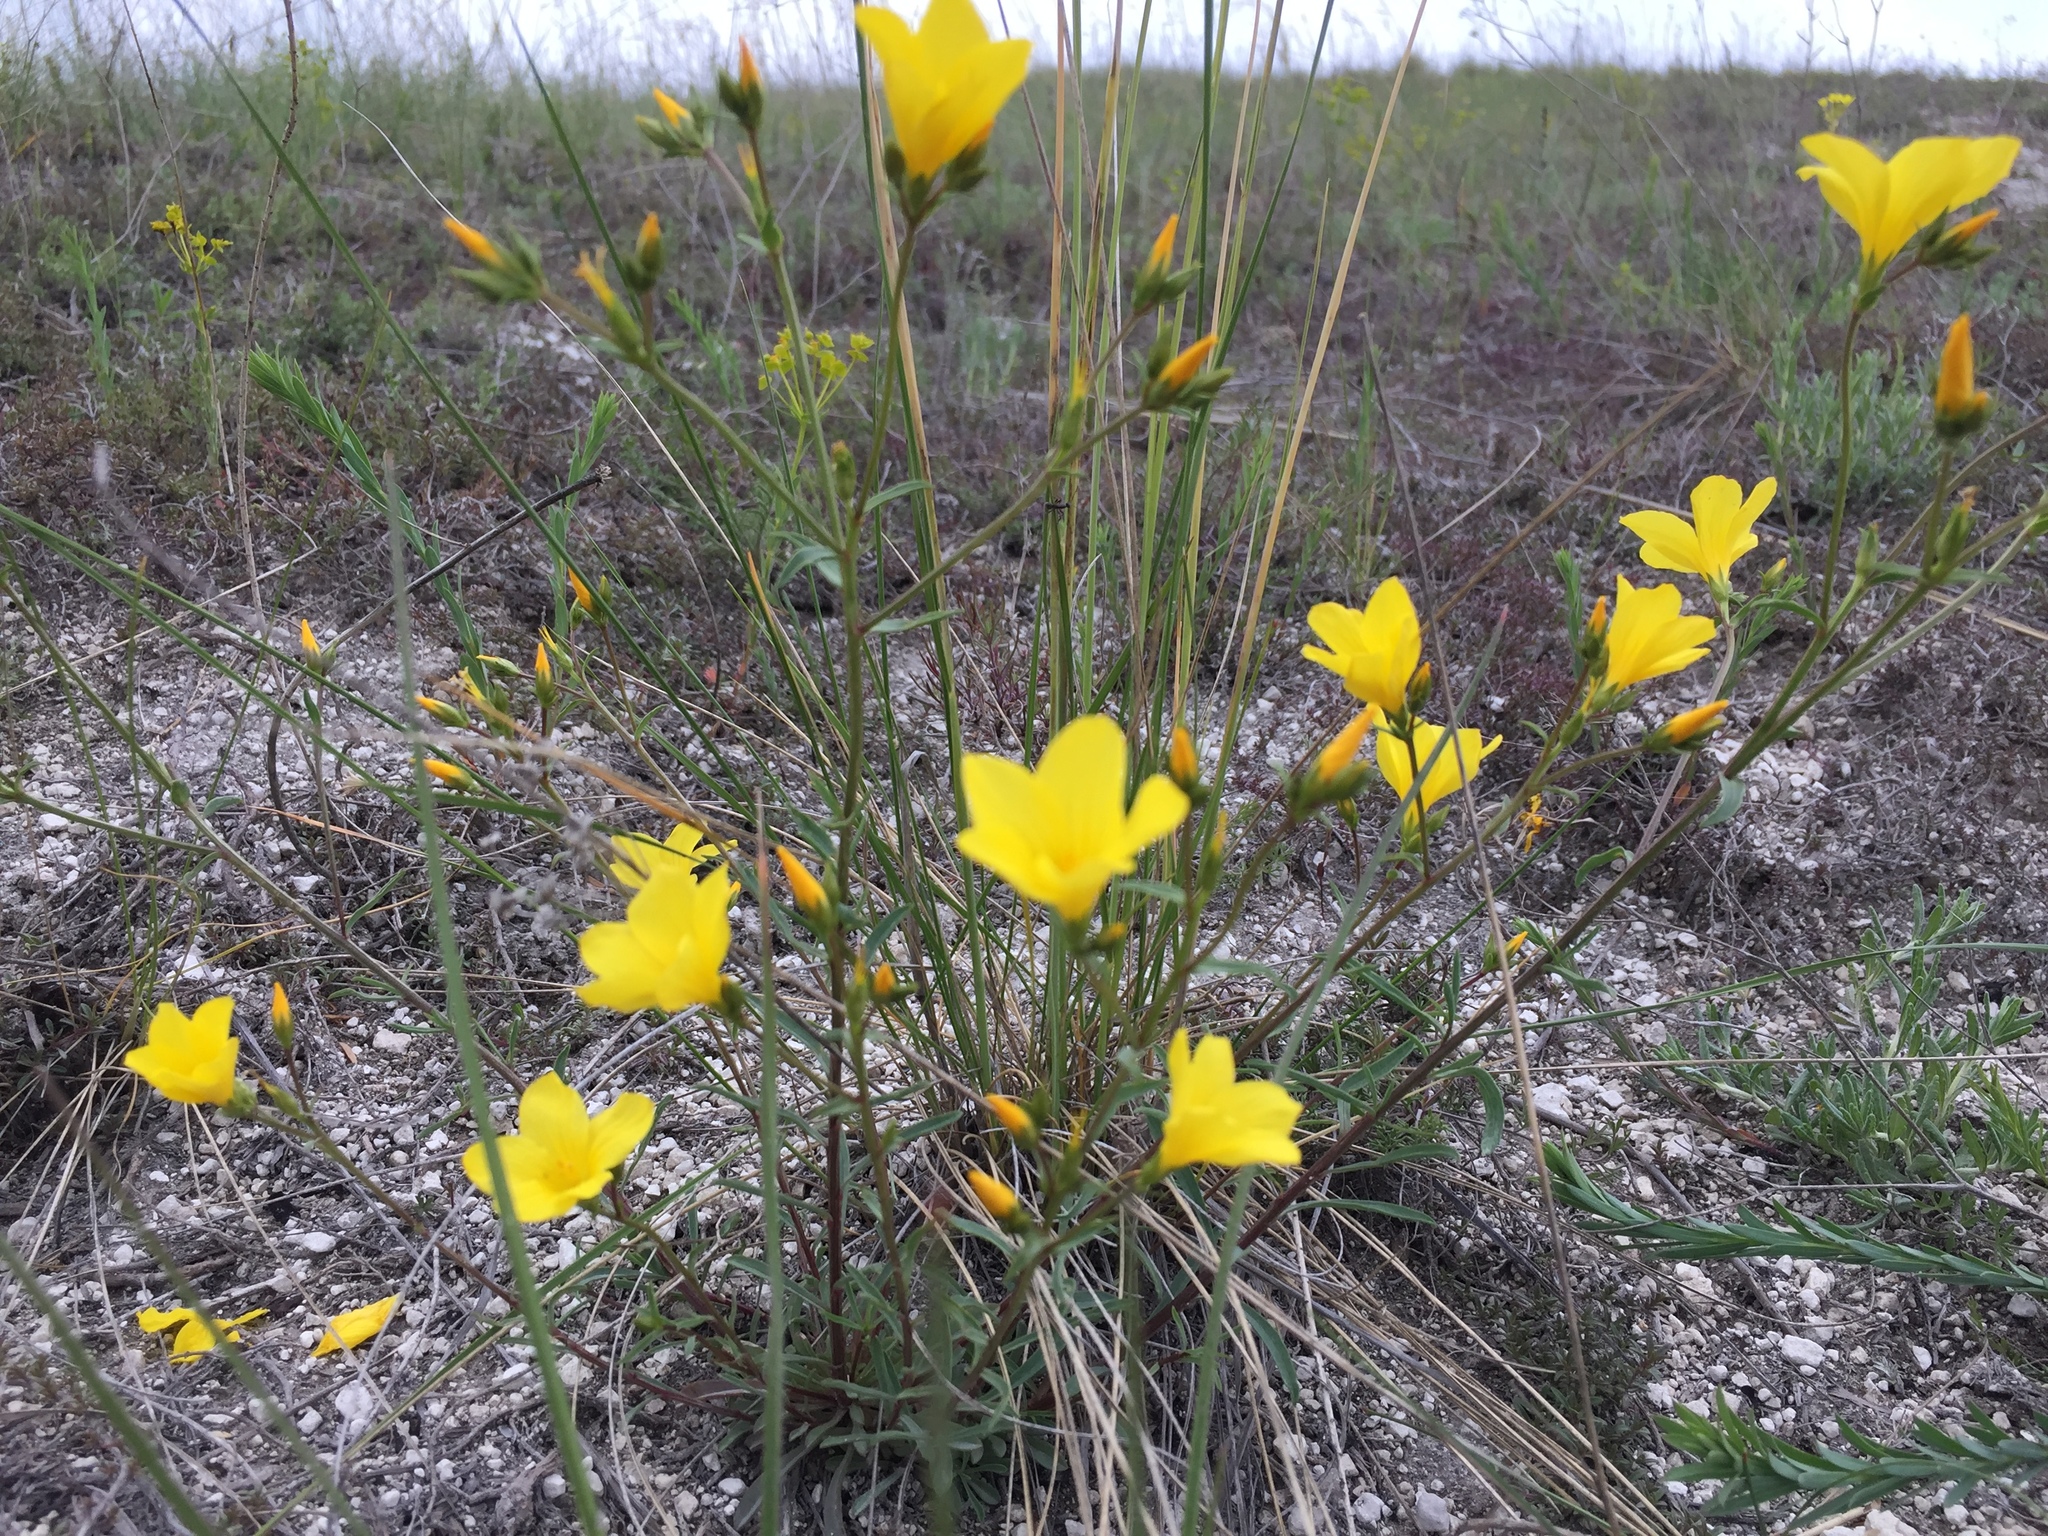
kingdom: Plantae
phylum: Tracheophyta
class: Magnoliopsida
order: Malpighiales
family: Linaceae
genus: Linum
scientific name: Linum ucranicum
